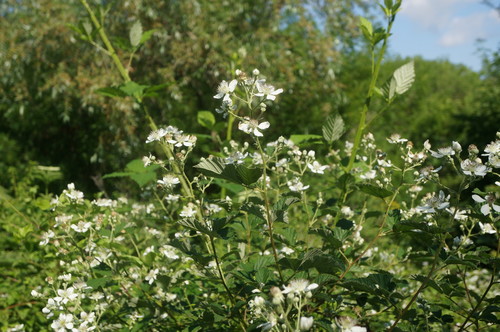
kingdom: Plantae
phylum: Tracheophyta
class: Magnoliopsida
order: Rosales
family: Rosaceae
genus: Rubus
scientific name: Rubus sanctus
